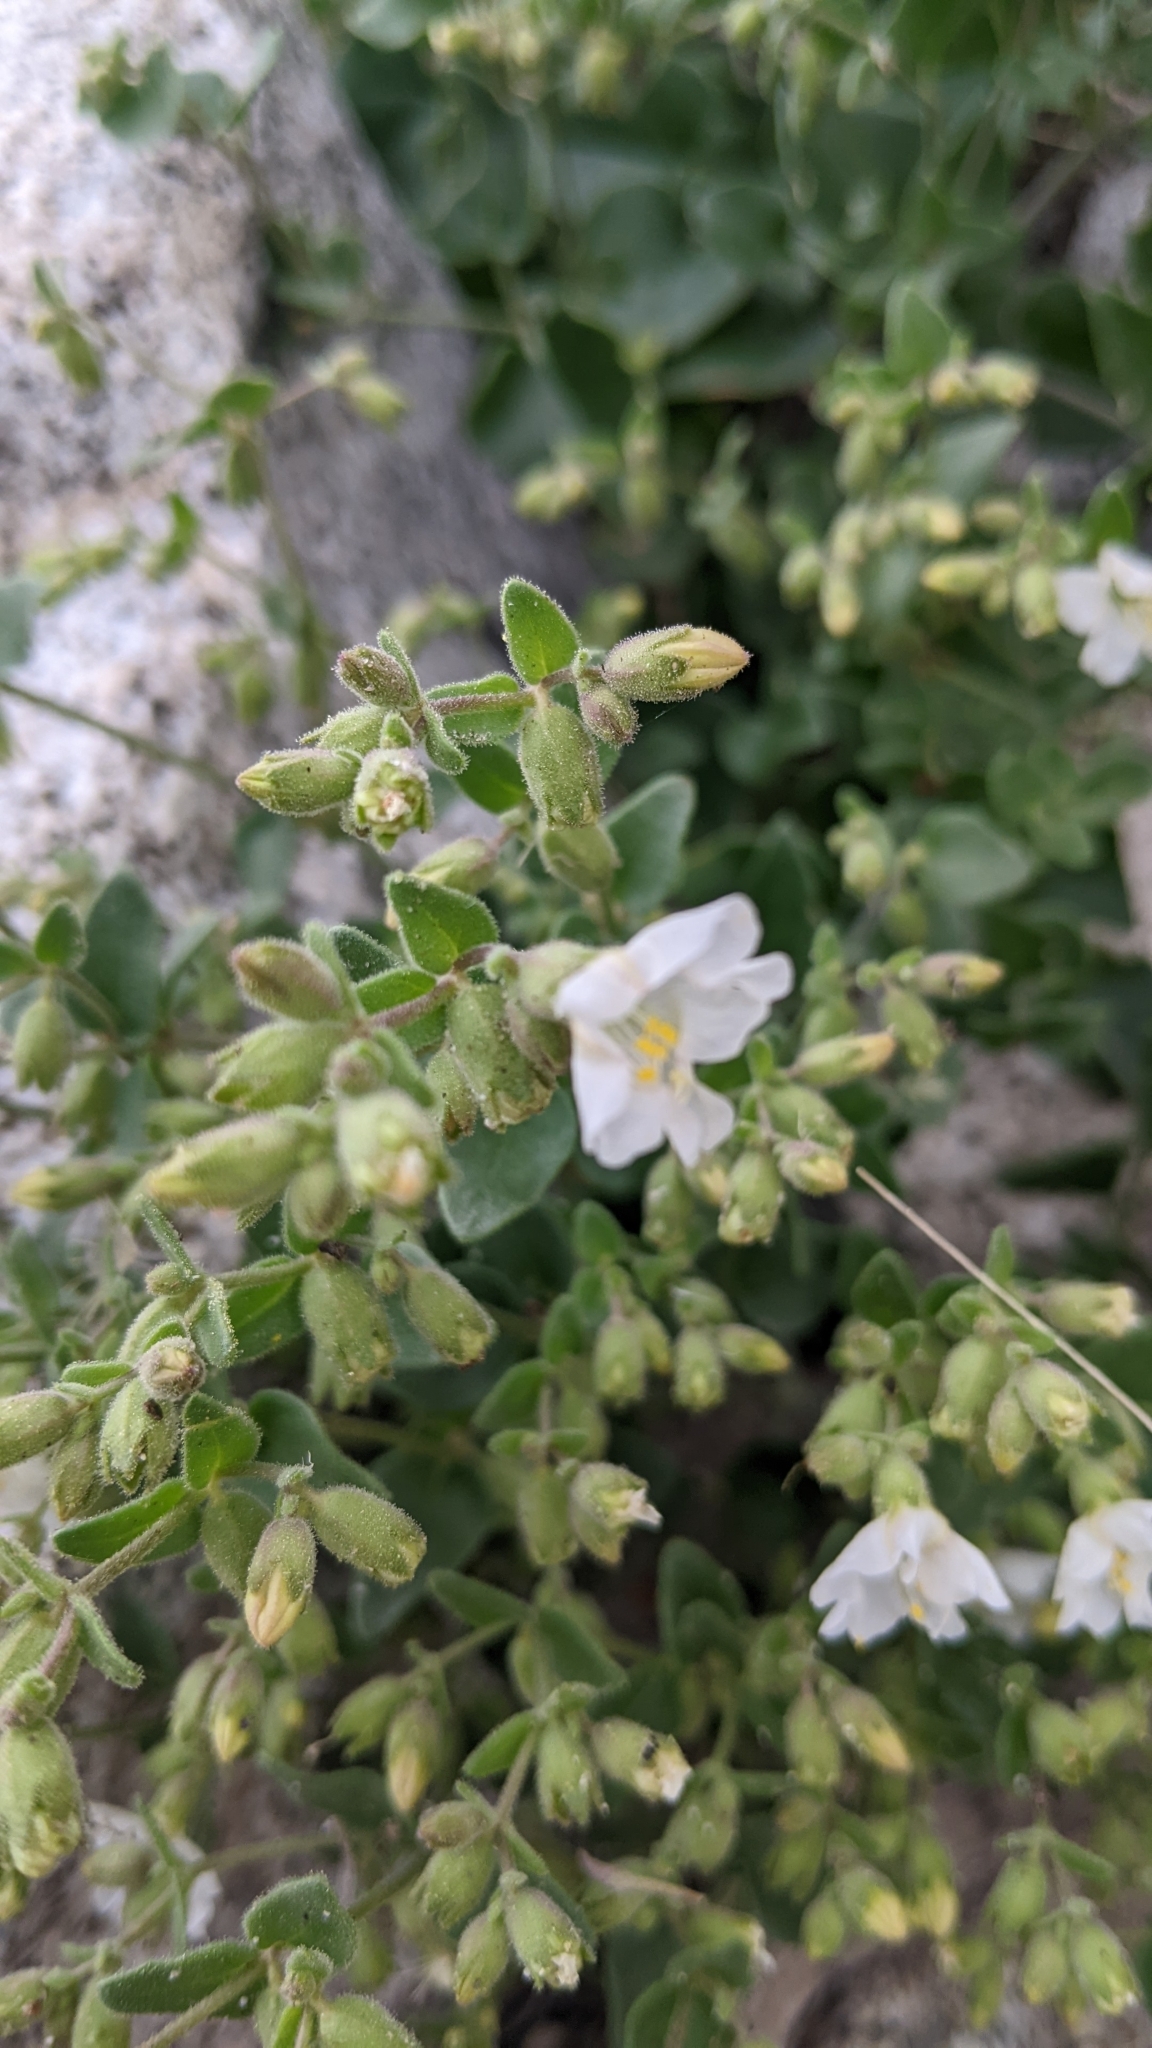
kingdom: Plantae
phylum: Tracheophyta
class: Magnoliopsida
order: Caryophyllales
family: Nyctaginaceae
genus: Mirabilis
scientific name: Mirabilis laevis
